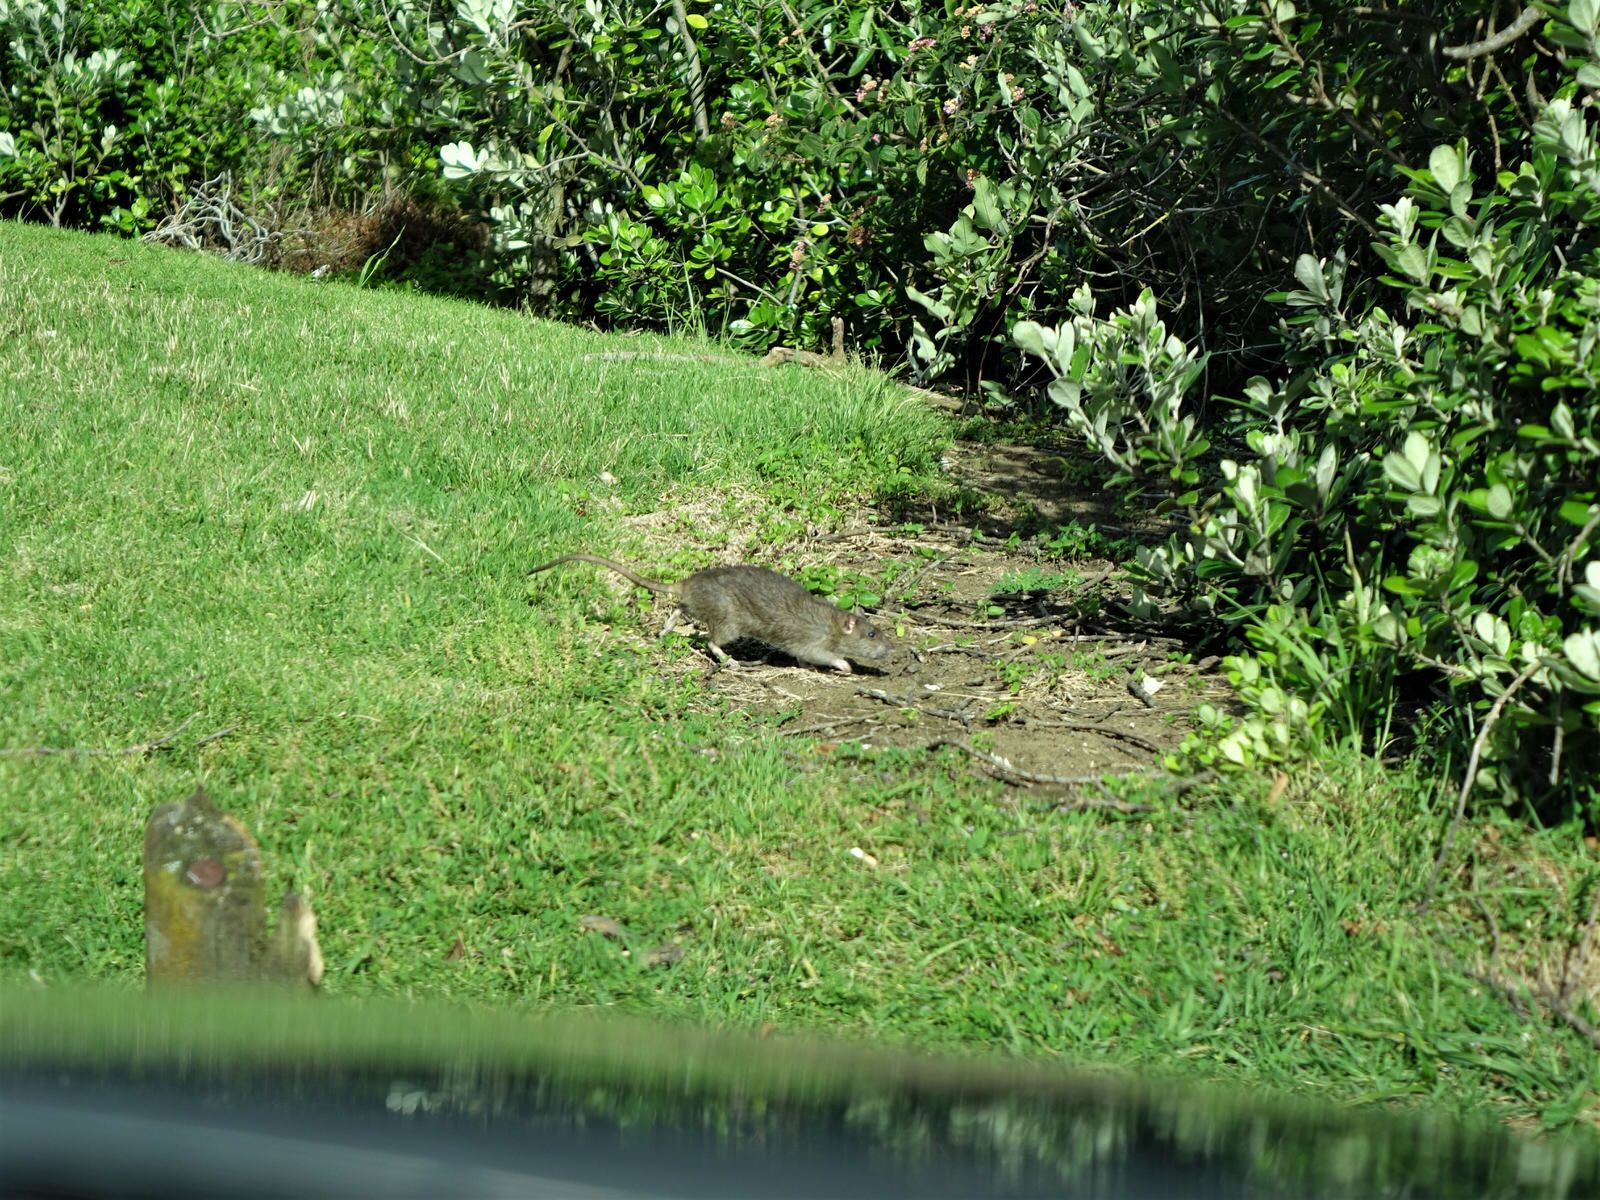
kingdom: Animalia
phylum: Chordata
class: Mammalia
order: Rodentia
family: Muridae
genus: Rattus
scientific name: Rattus norvegicus
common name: Brown rat
